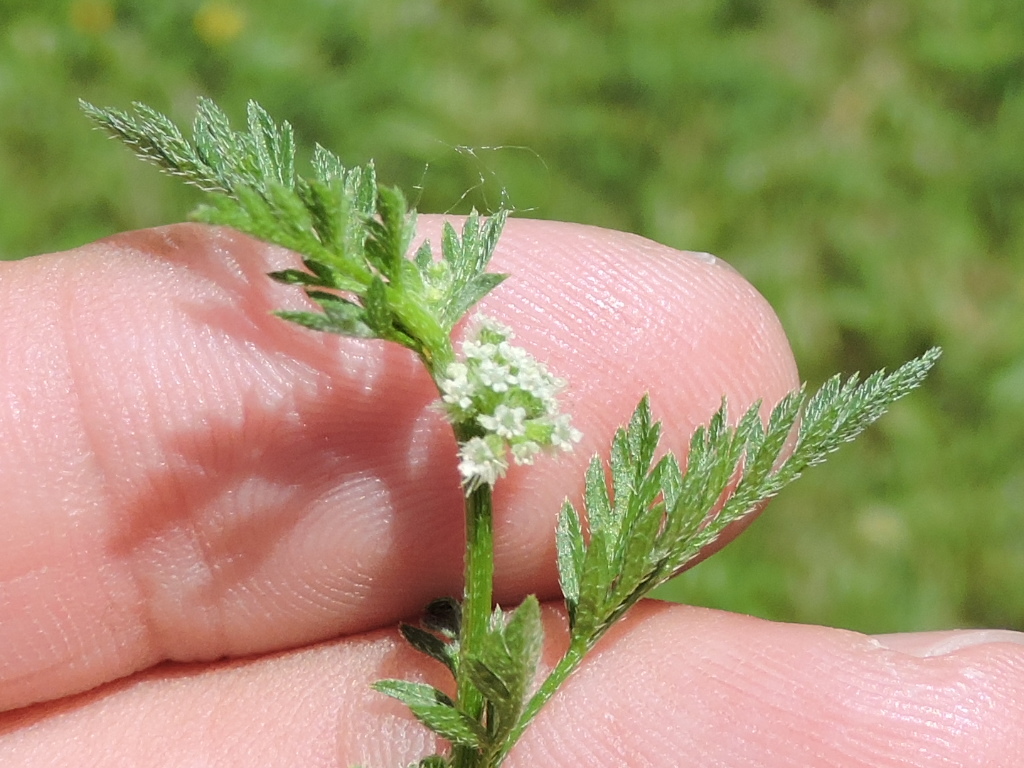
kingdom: Plantae
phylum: Tracheophyta
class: Magnoliopsida
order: Apiales
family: Apiaceae
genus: Torilis
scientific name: Torilis nodosa
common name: Knotted hedge-parsley
